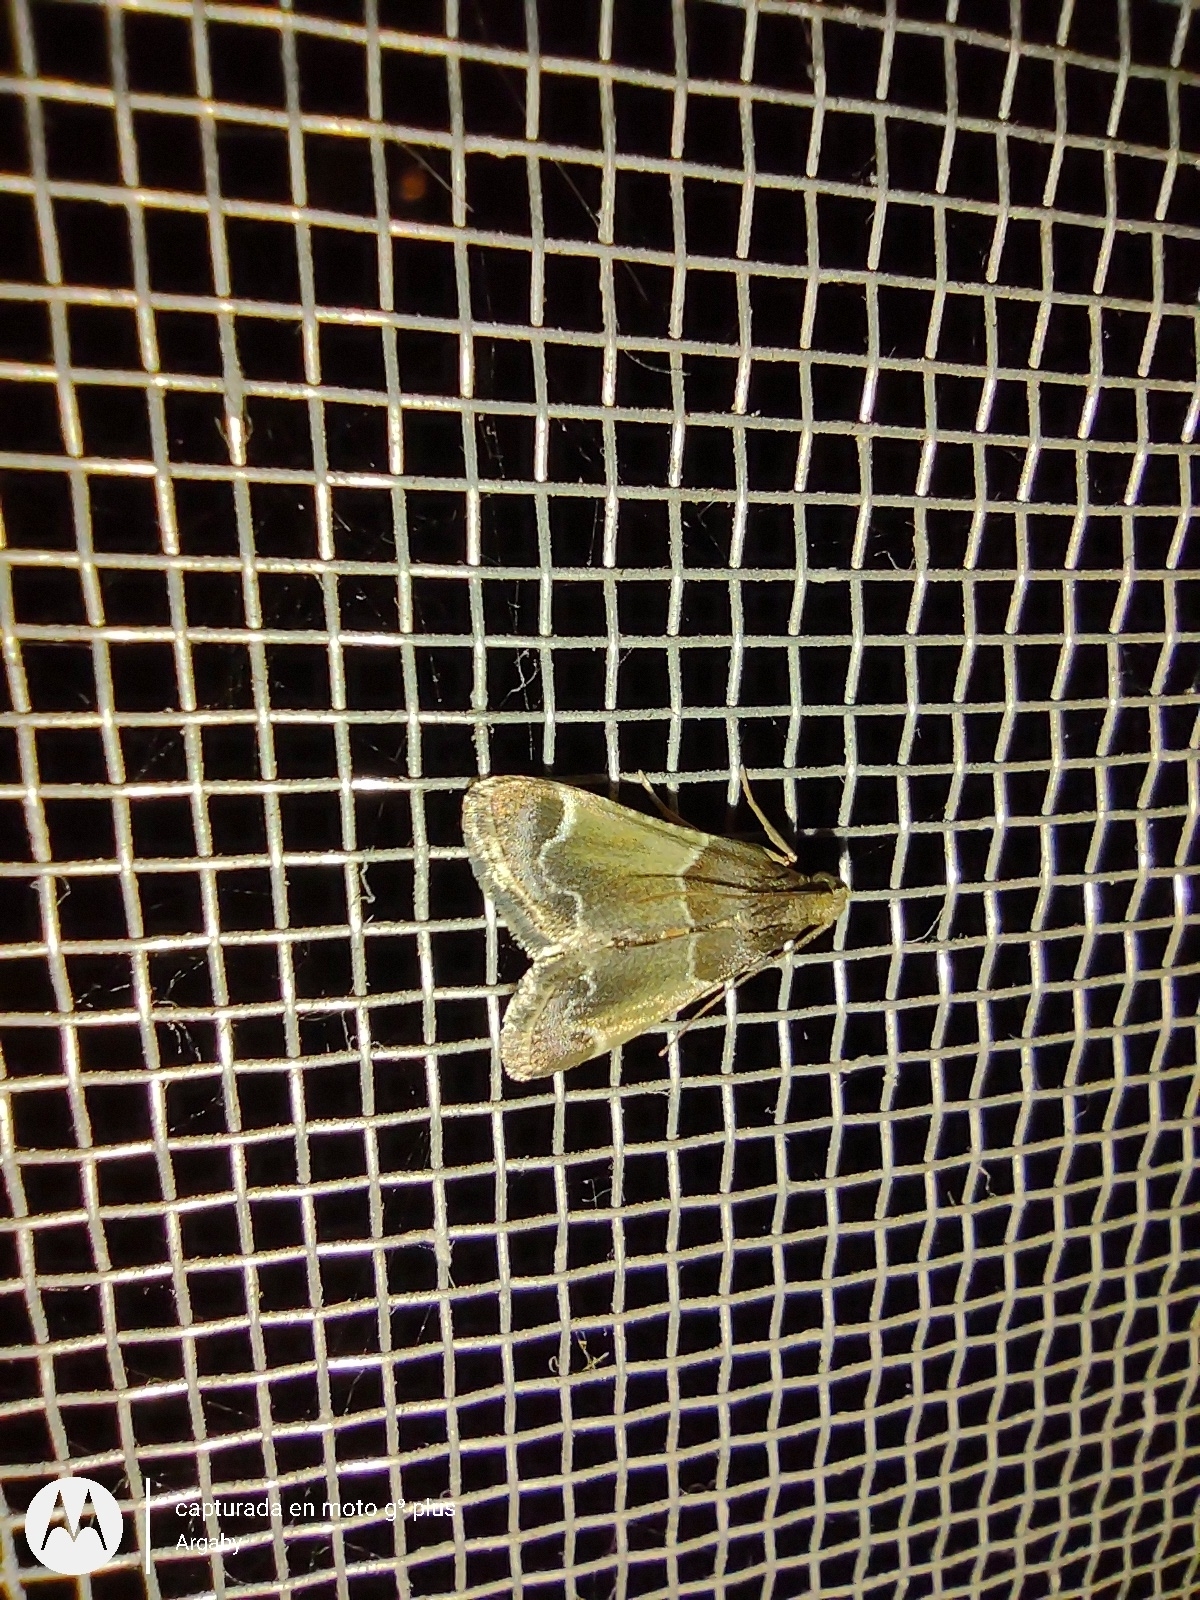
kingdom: Animalia
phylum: Arthropoda
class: Insecta
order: Lepidoptera
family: Pyralidae
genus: Pyralis
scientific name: Pyralis farinalis
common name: Meal moth
